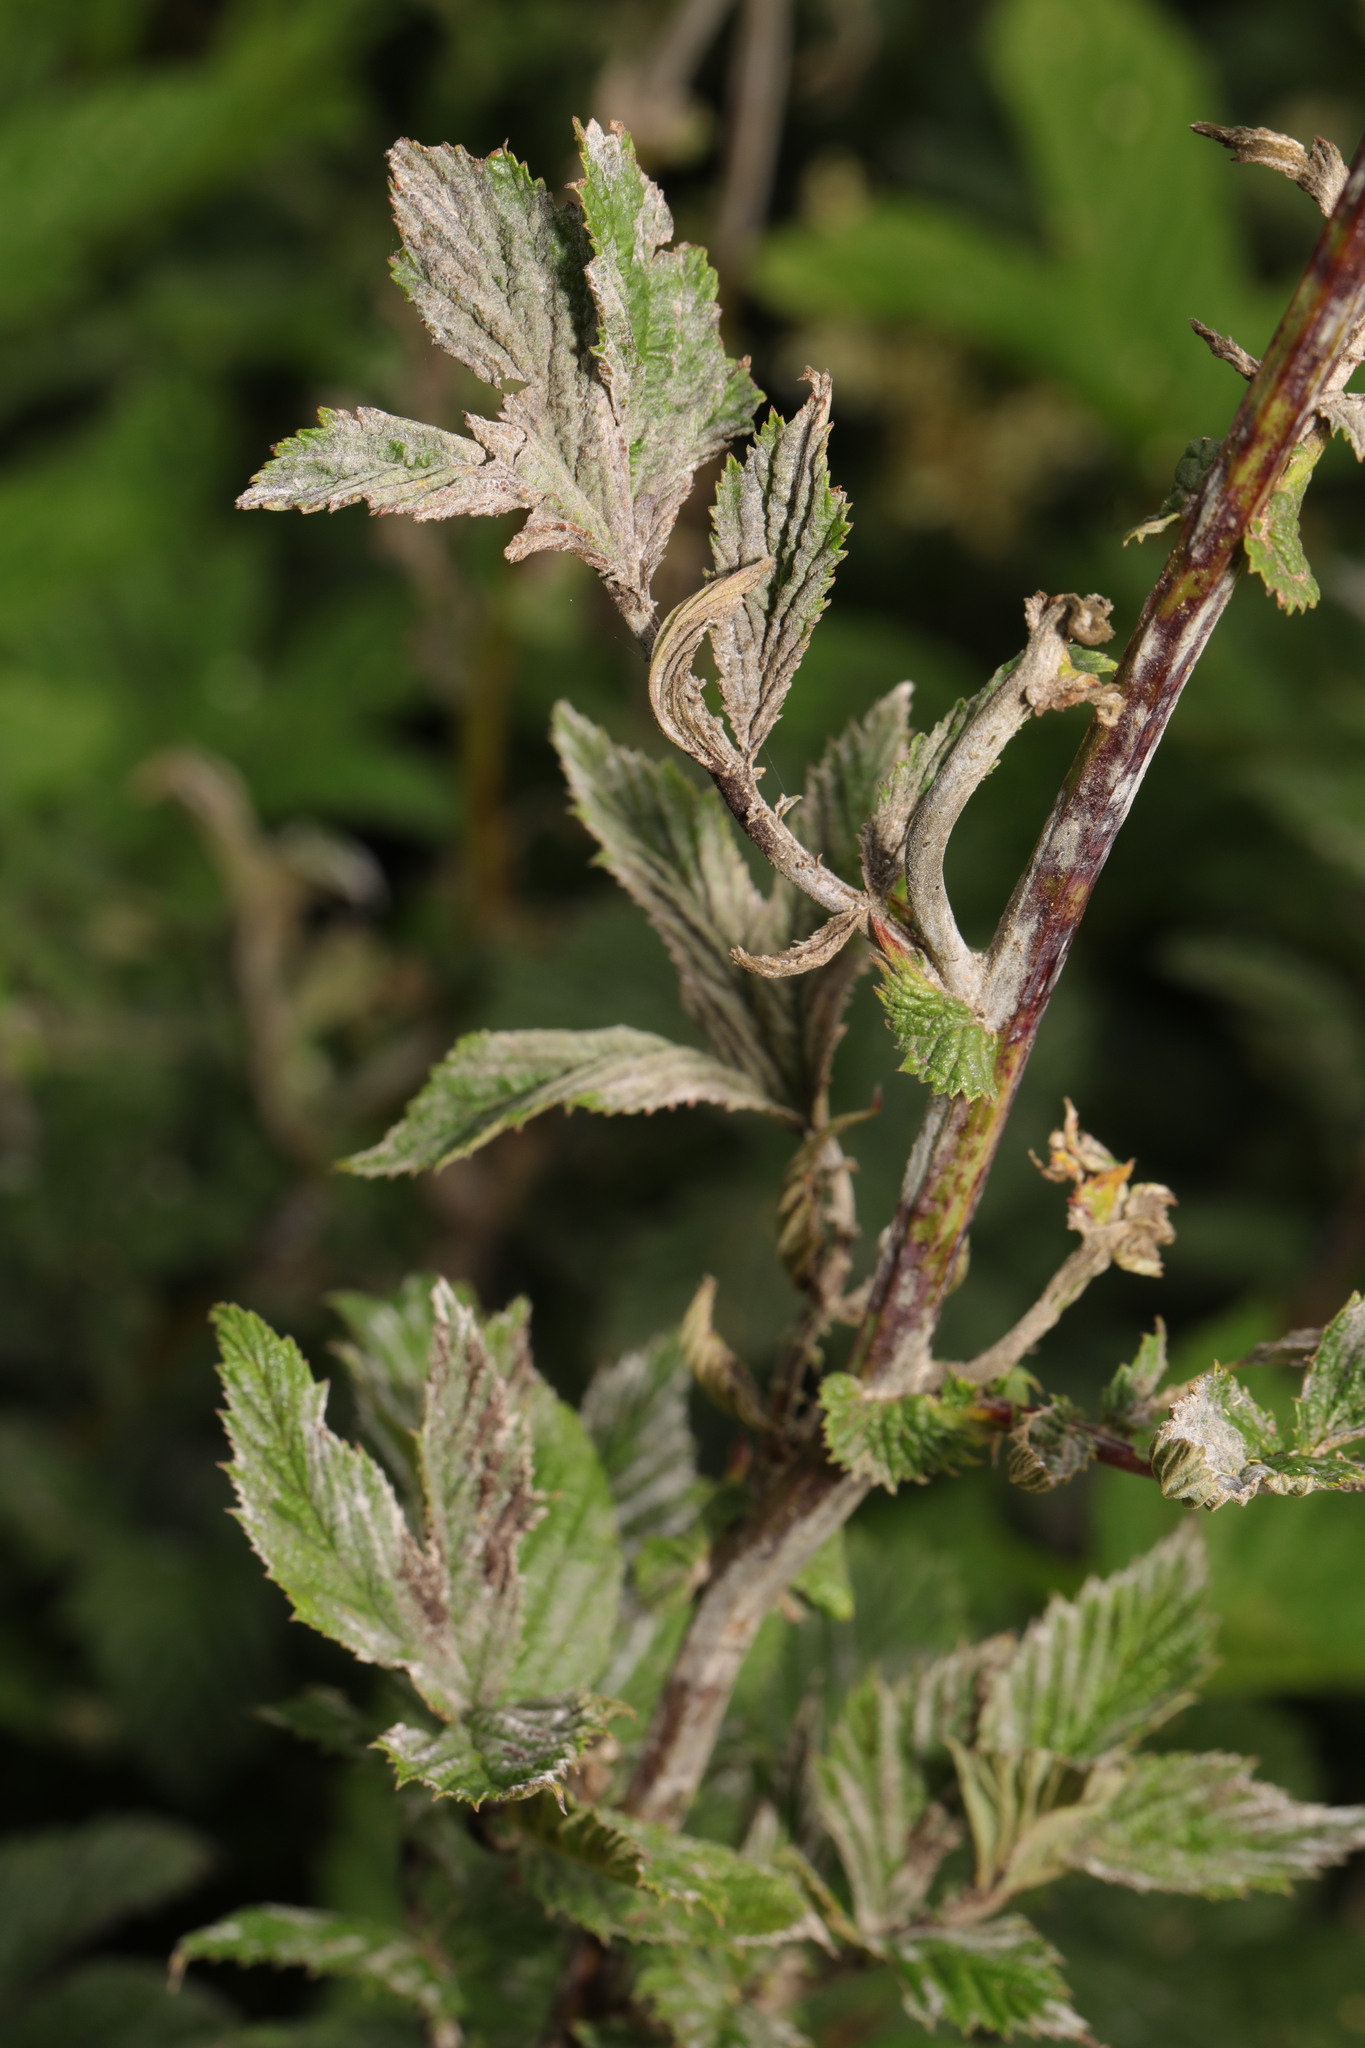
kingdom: Fungi
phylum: Ascomycota
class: Leotiomycetes
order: Helotiales
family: Erysiphaceae
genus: Podosphaera
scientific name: Podosphaera filipendulae
